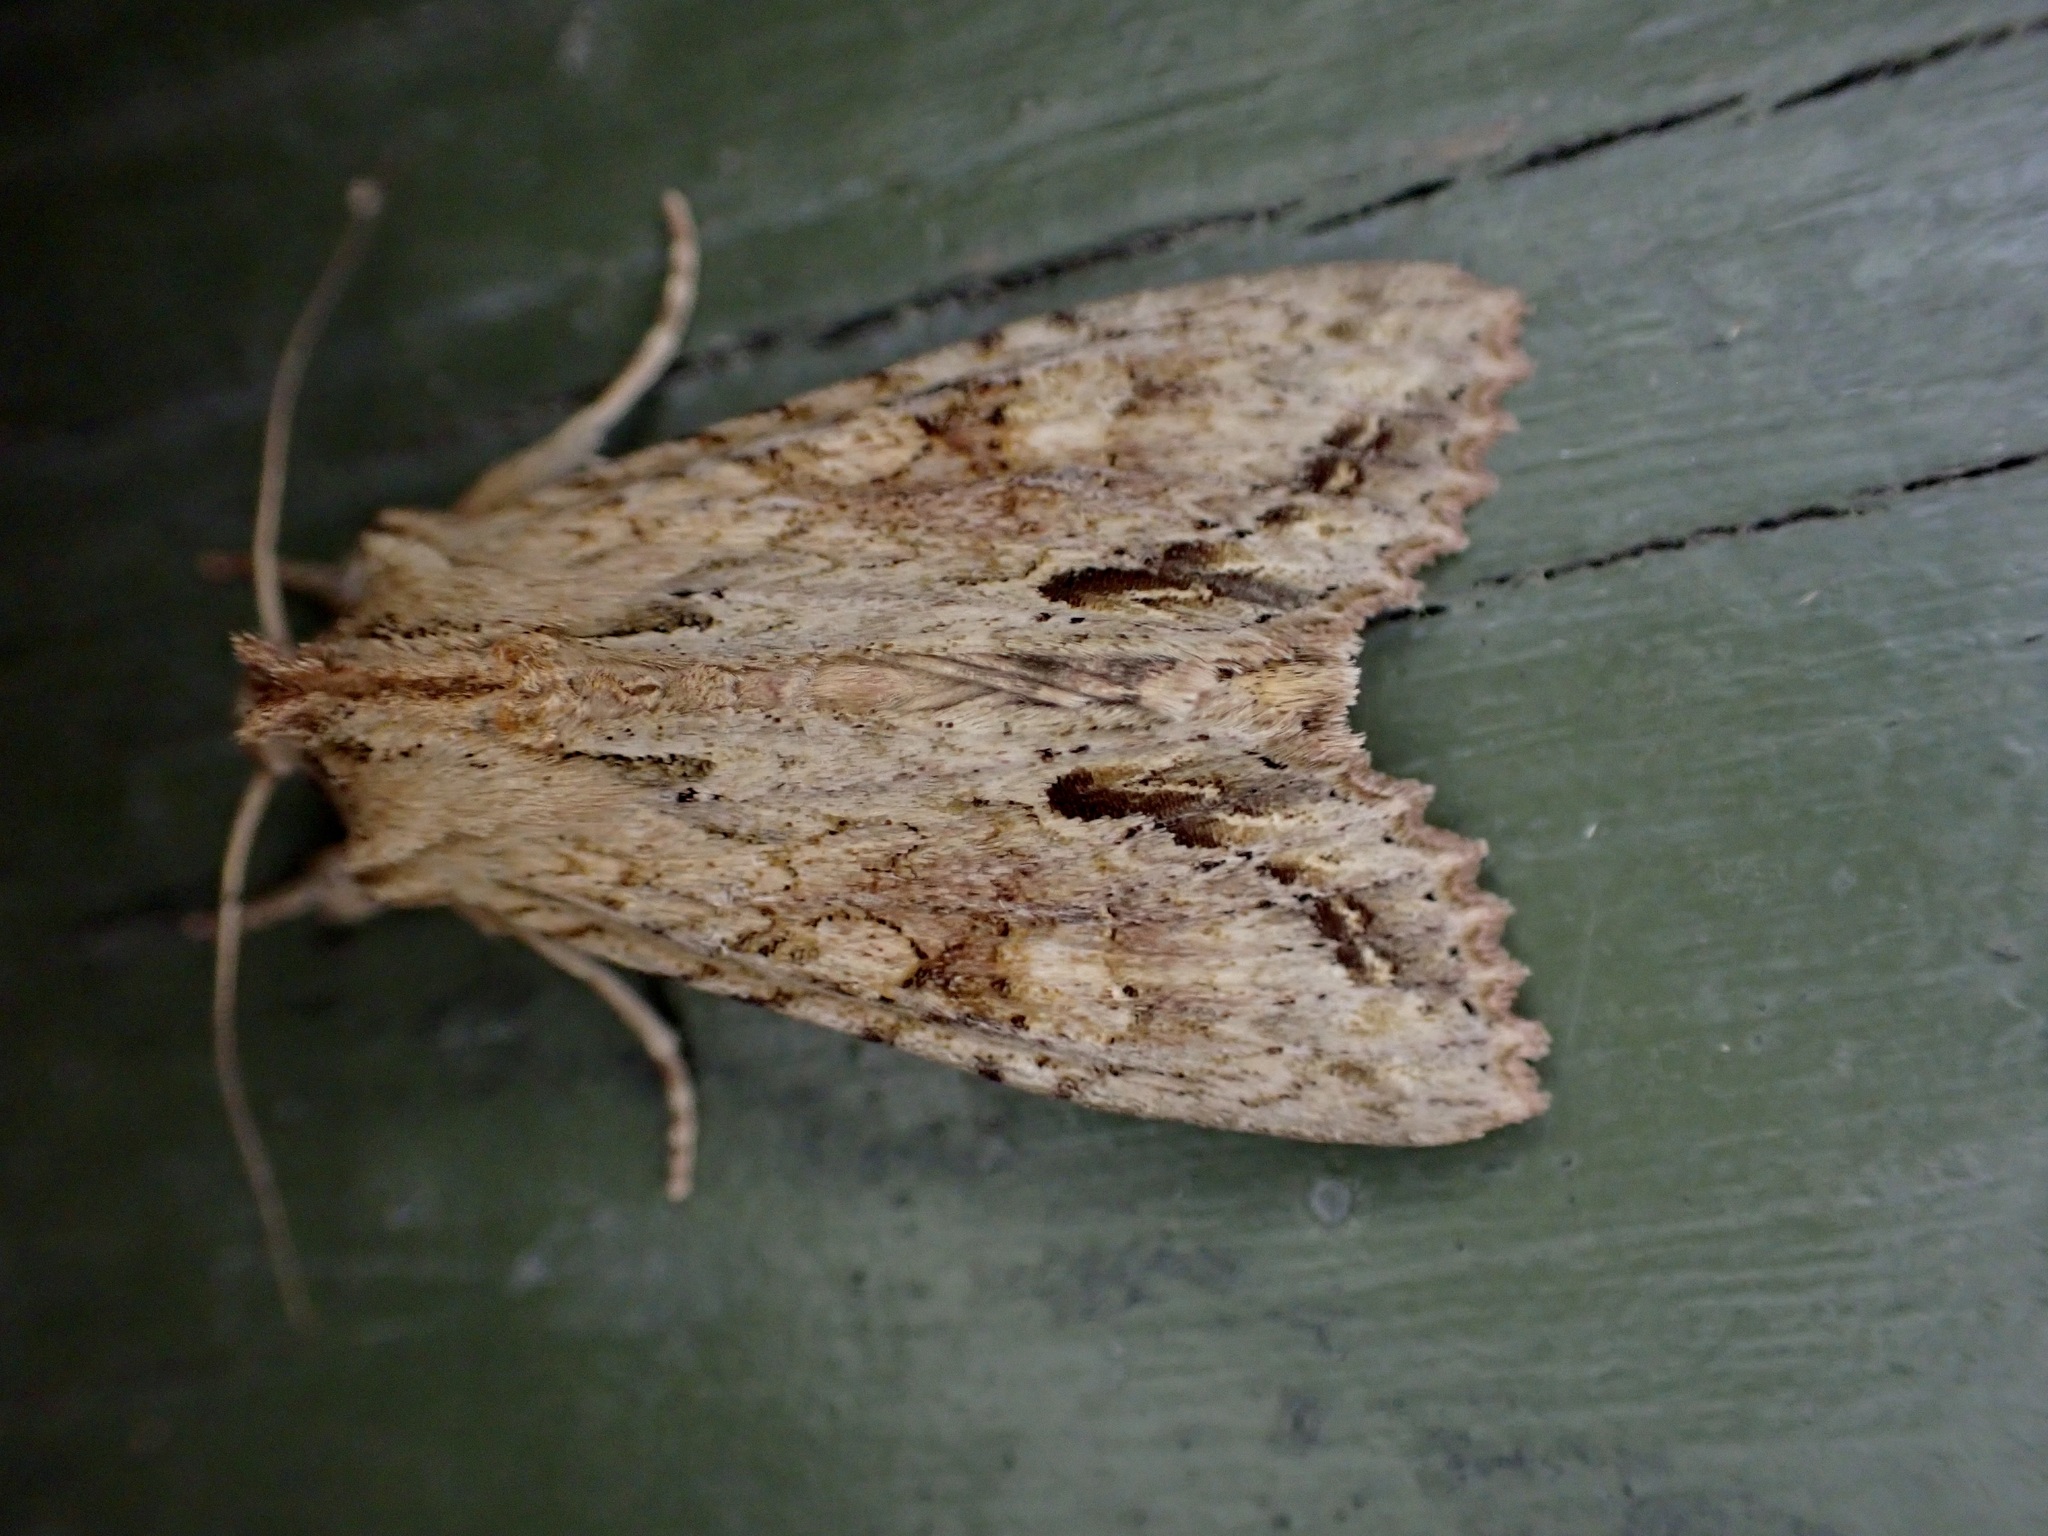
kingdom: Animalia
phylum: Arthropoda
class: Insecta
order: Lepidoptera
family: Noctuidae
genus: Ichneutica
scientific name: Ichneutica mollis
